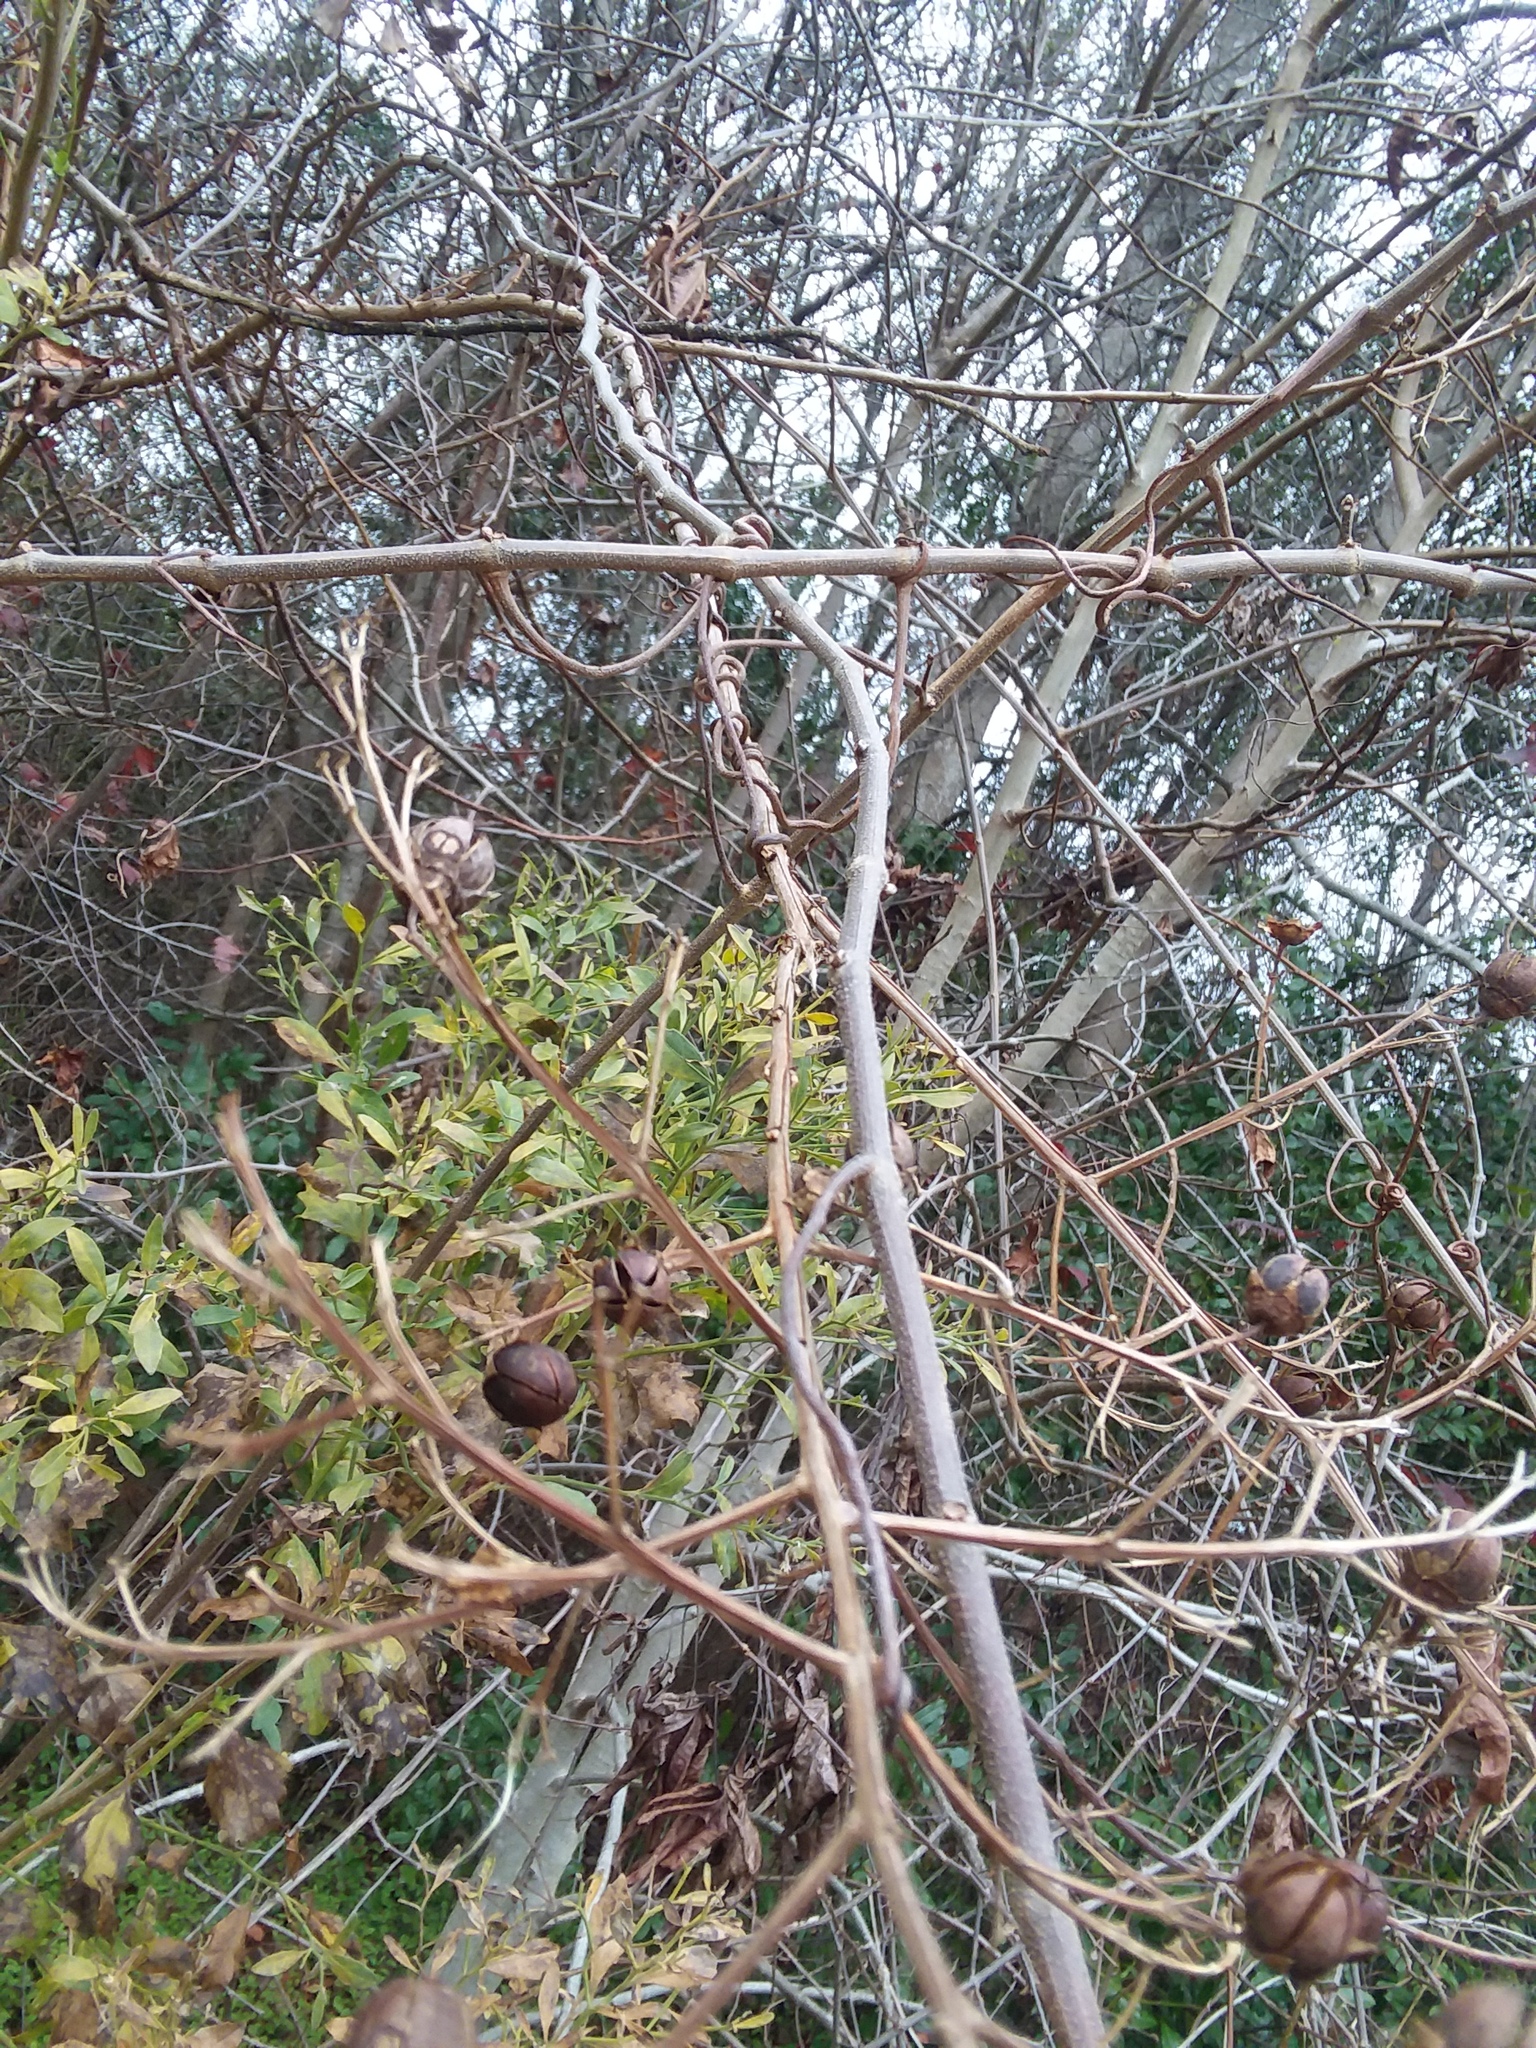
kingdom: Plantae
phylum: Tracheophyta
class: Magnoliopsida
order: Myrtales
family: Lythraceae
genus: Lagerstroemia
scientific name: Lagerstroemia indica
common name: Crape-myrtle
